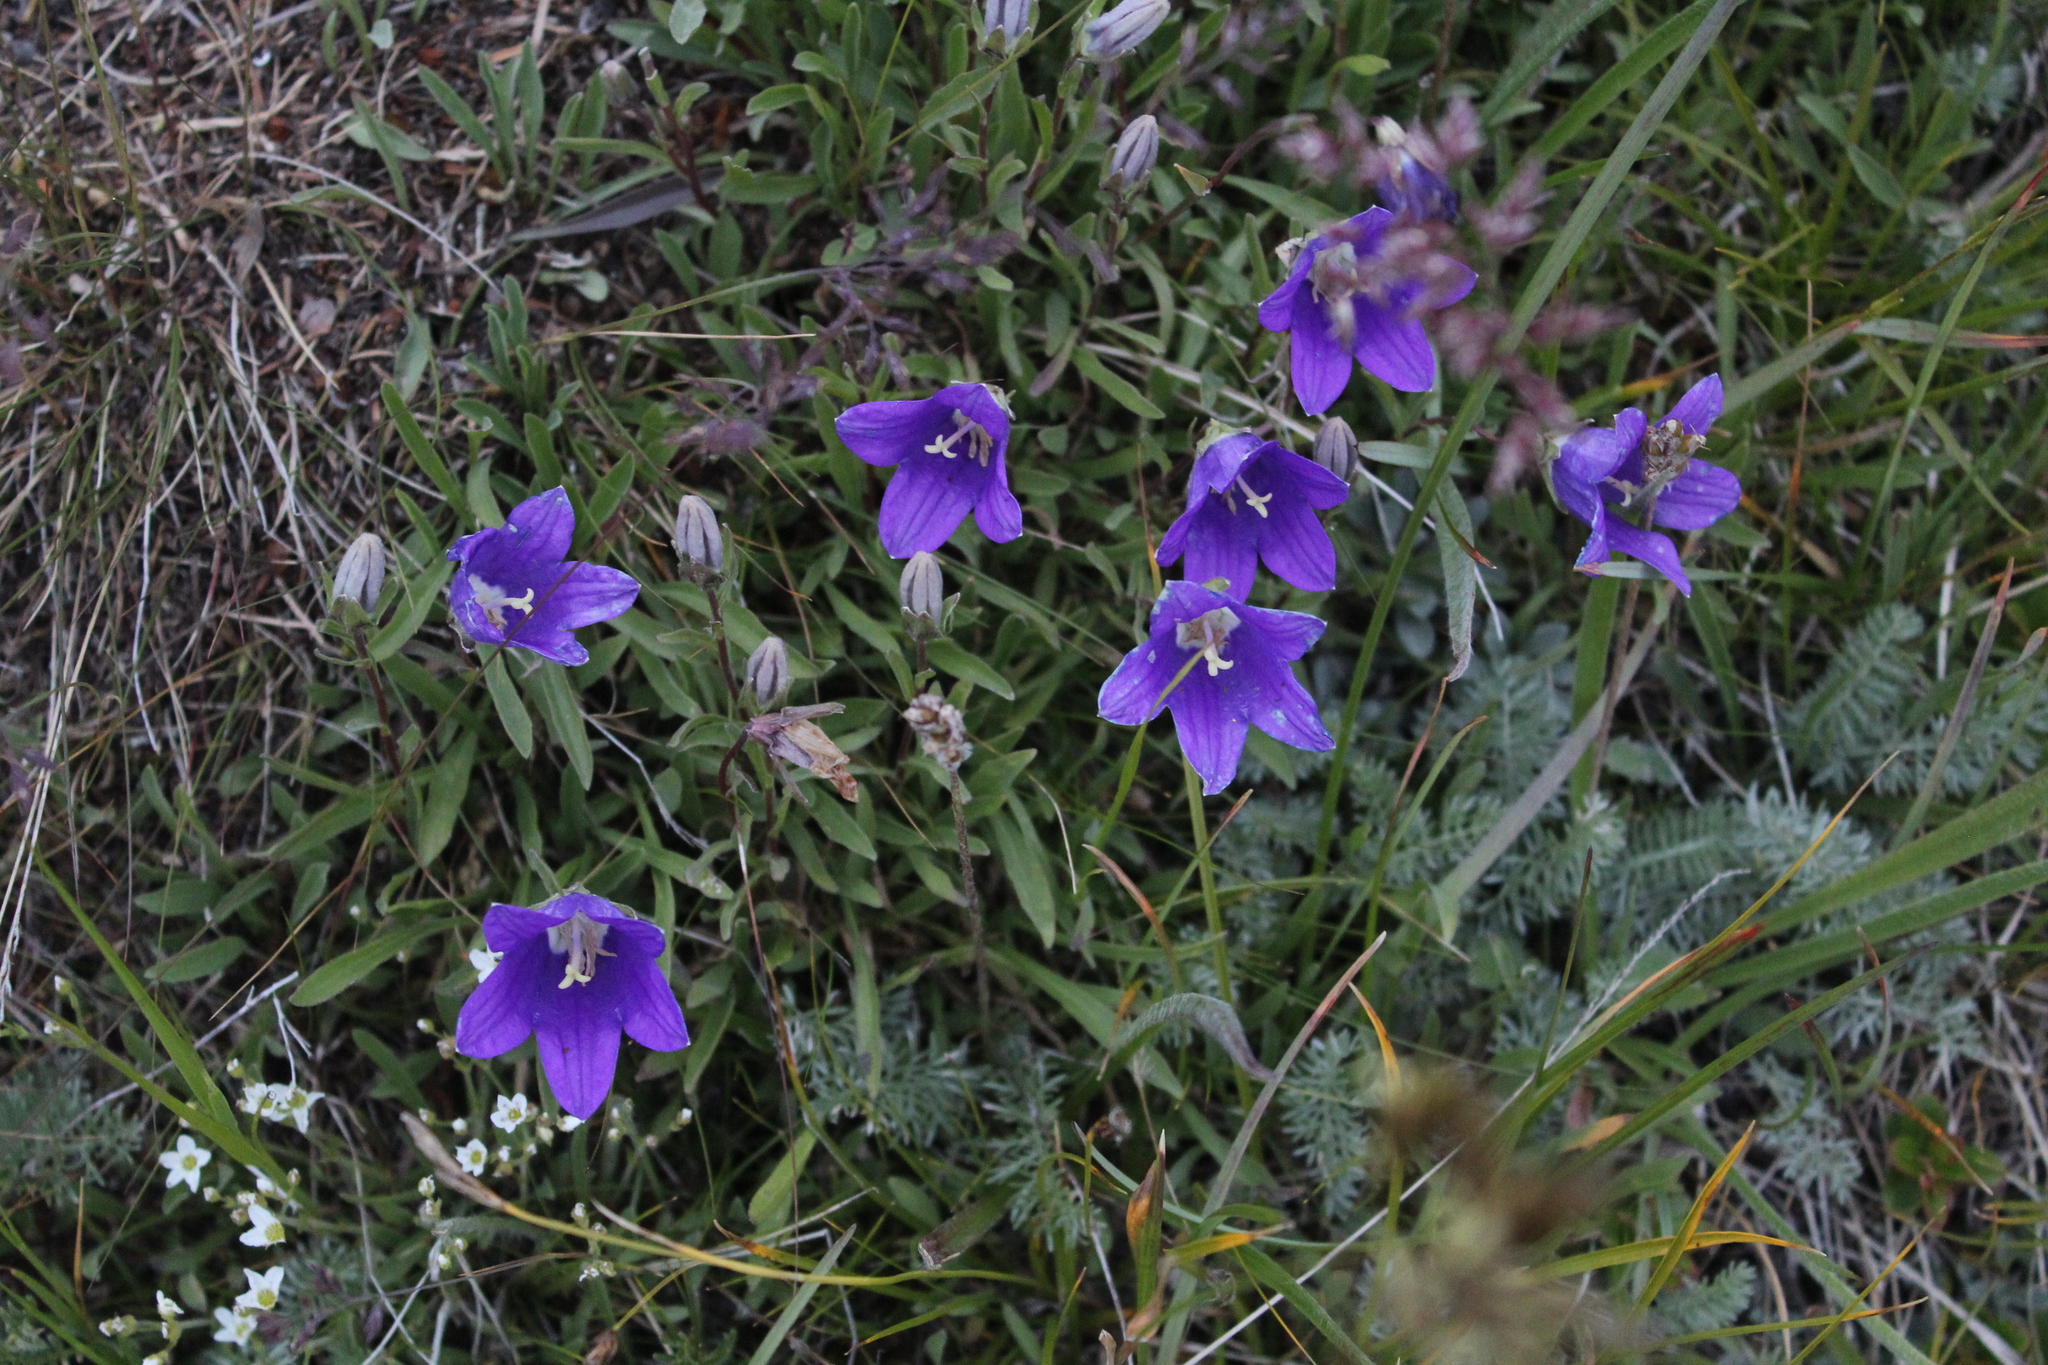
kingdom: Plantae
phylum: Tracheophyta
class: Magnoliopsida
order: Asterales
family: Campanulaceae
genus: Campanula
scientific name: Campanula saxifraga
